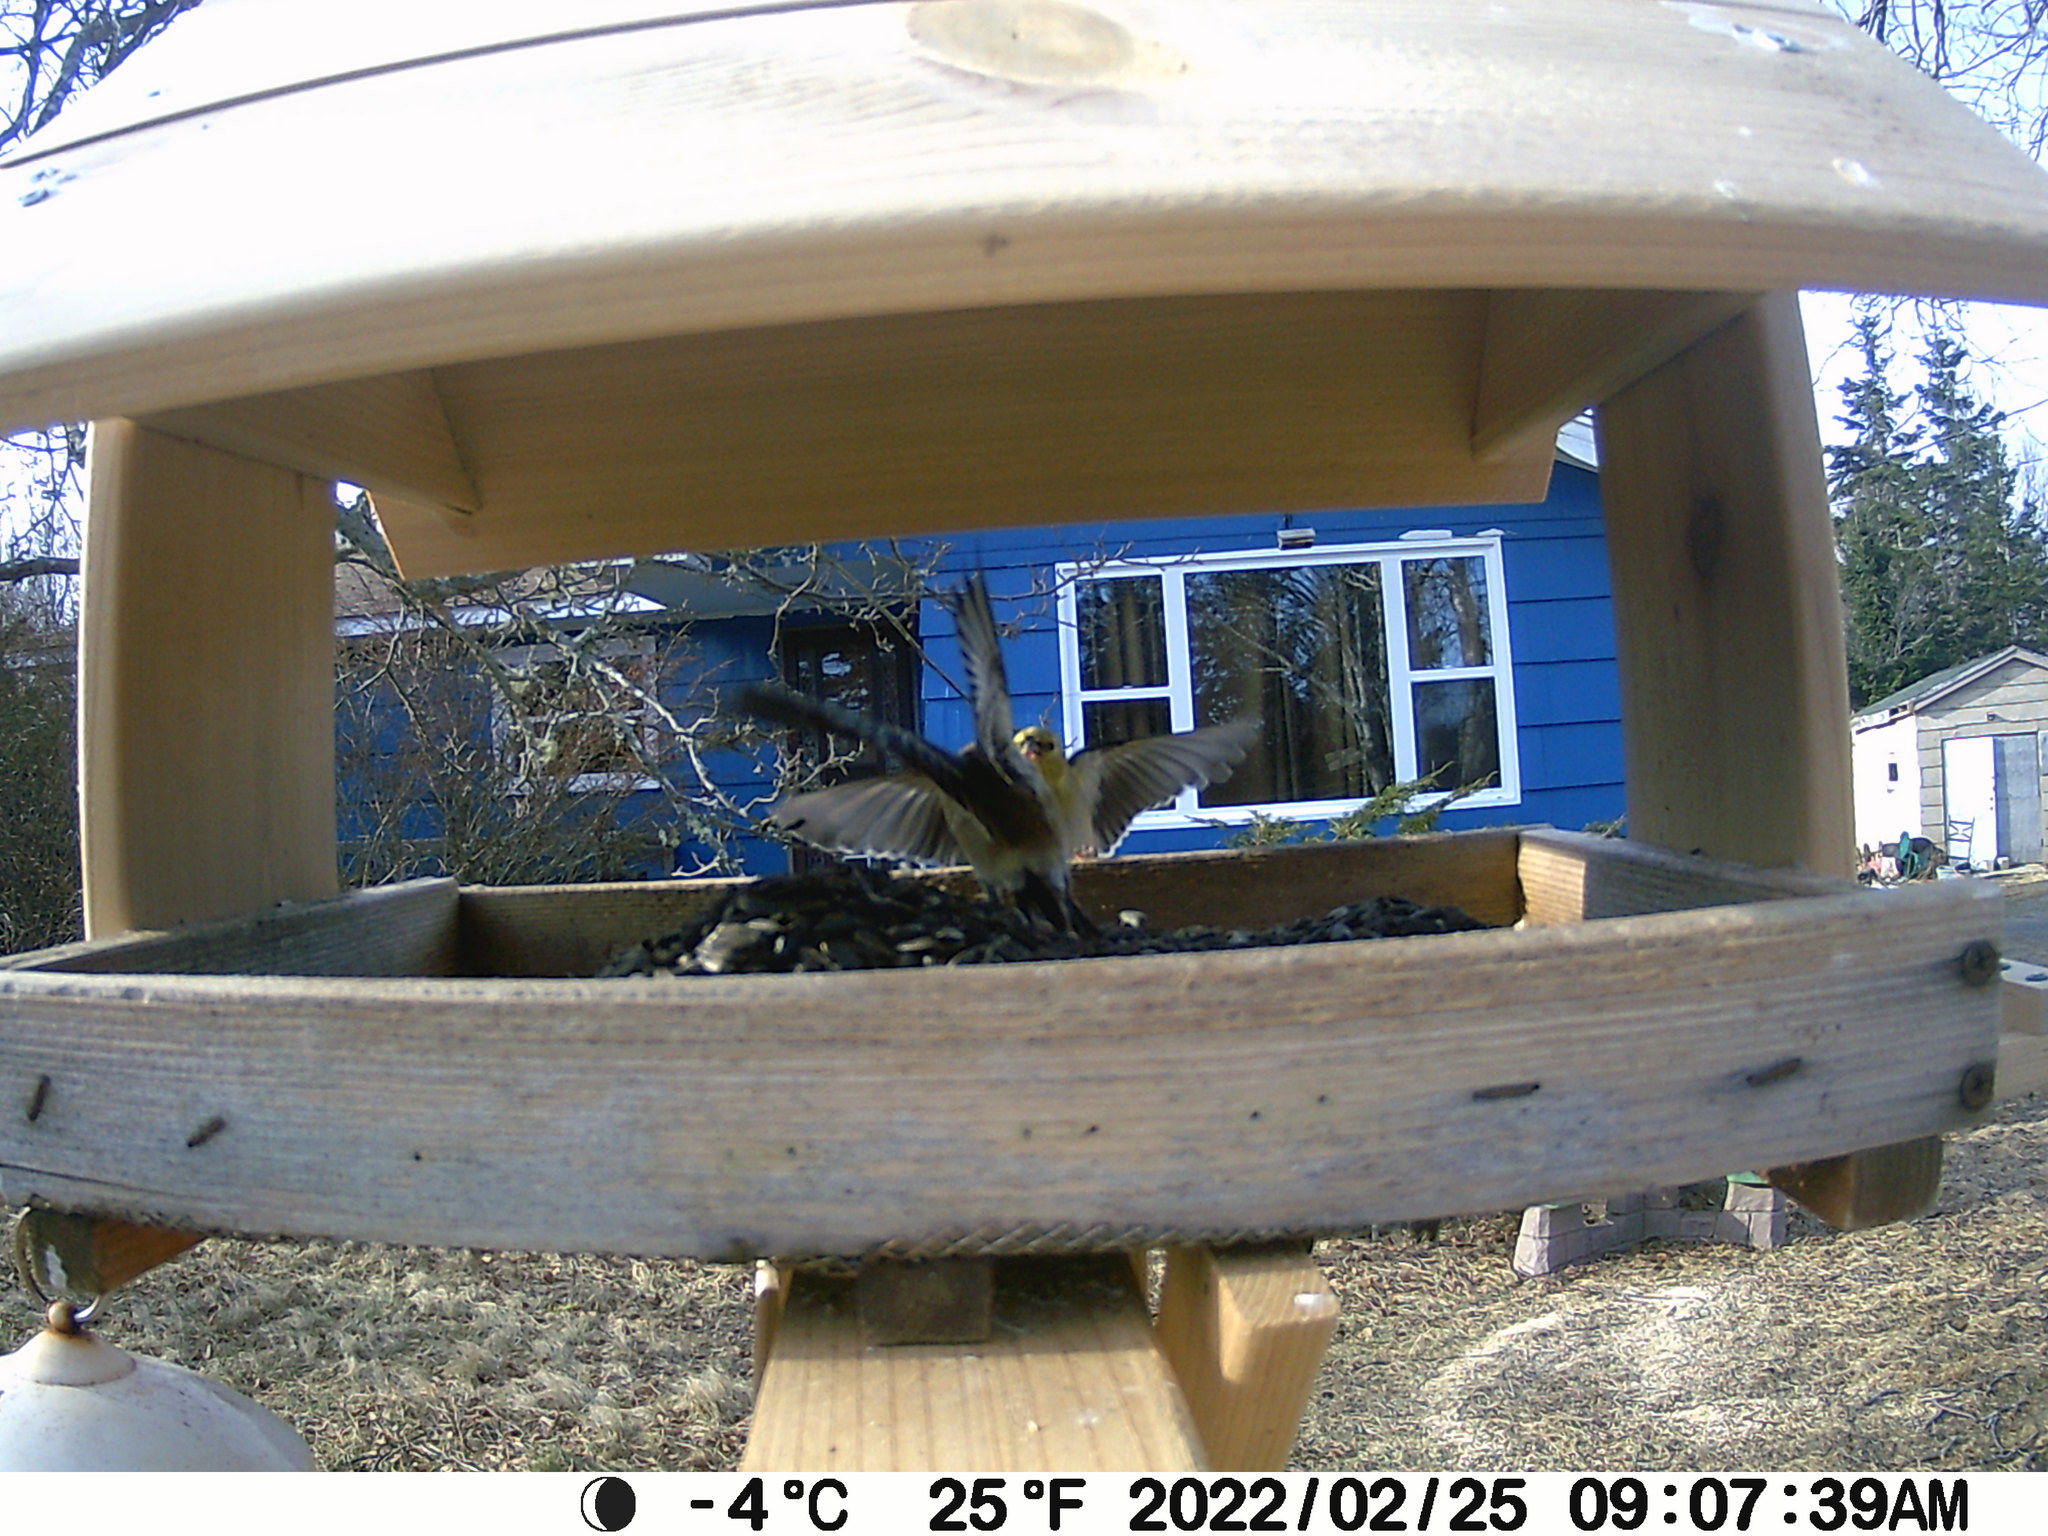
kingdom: Animalia
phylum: Chordata
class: Aves
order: Passeriformes
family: Fringillidae
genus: Spinus
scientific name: Spinus tristis
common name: American goldfinch
